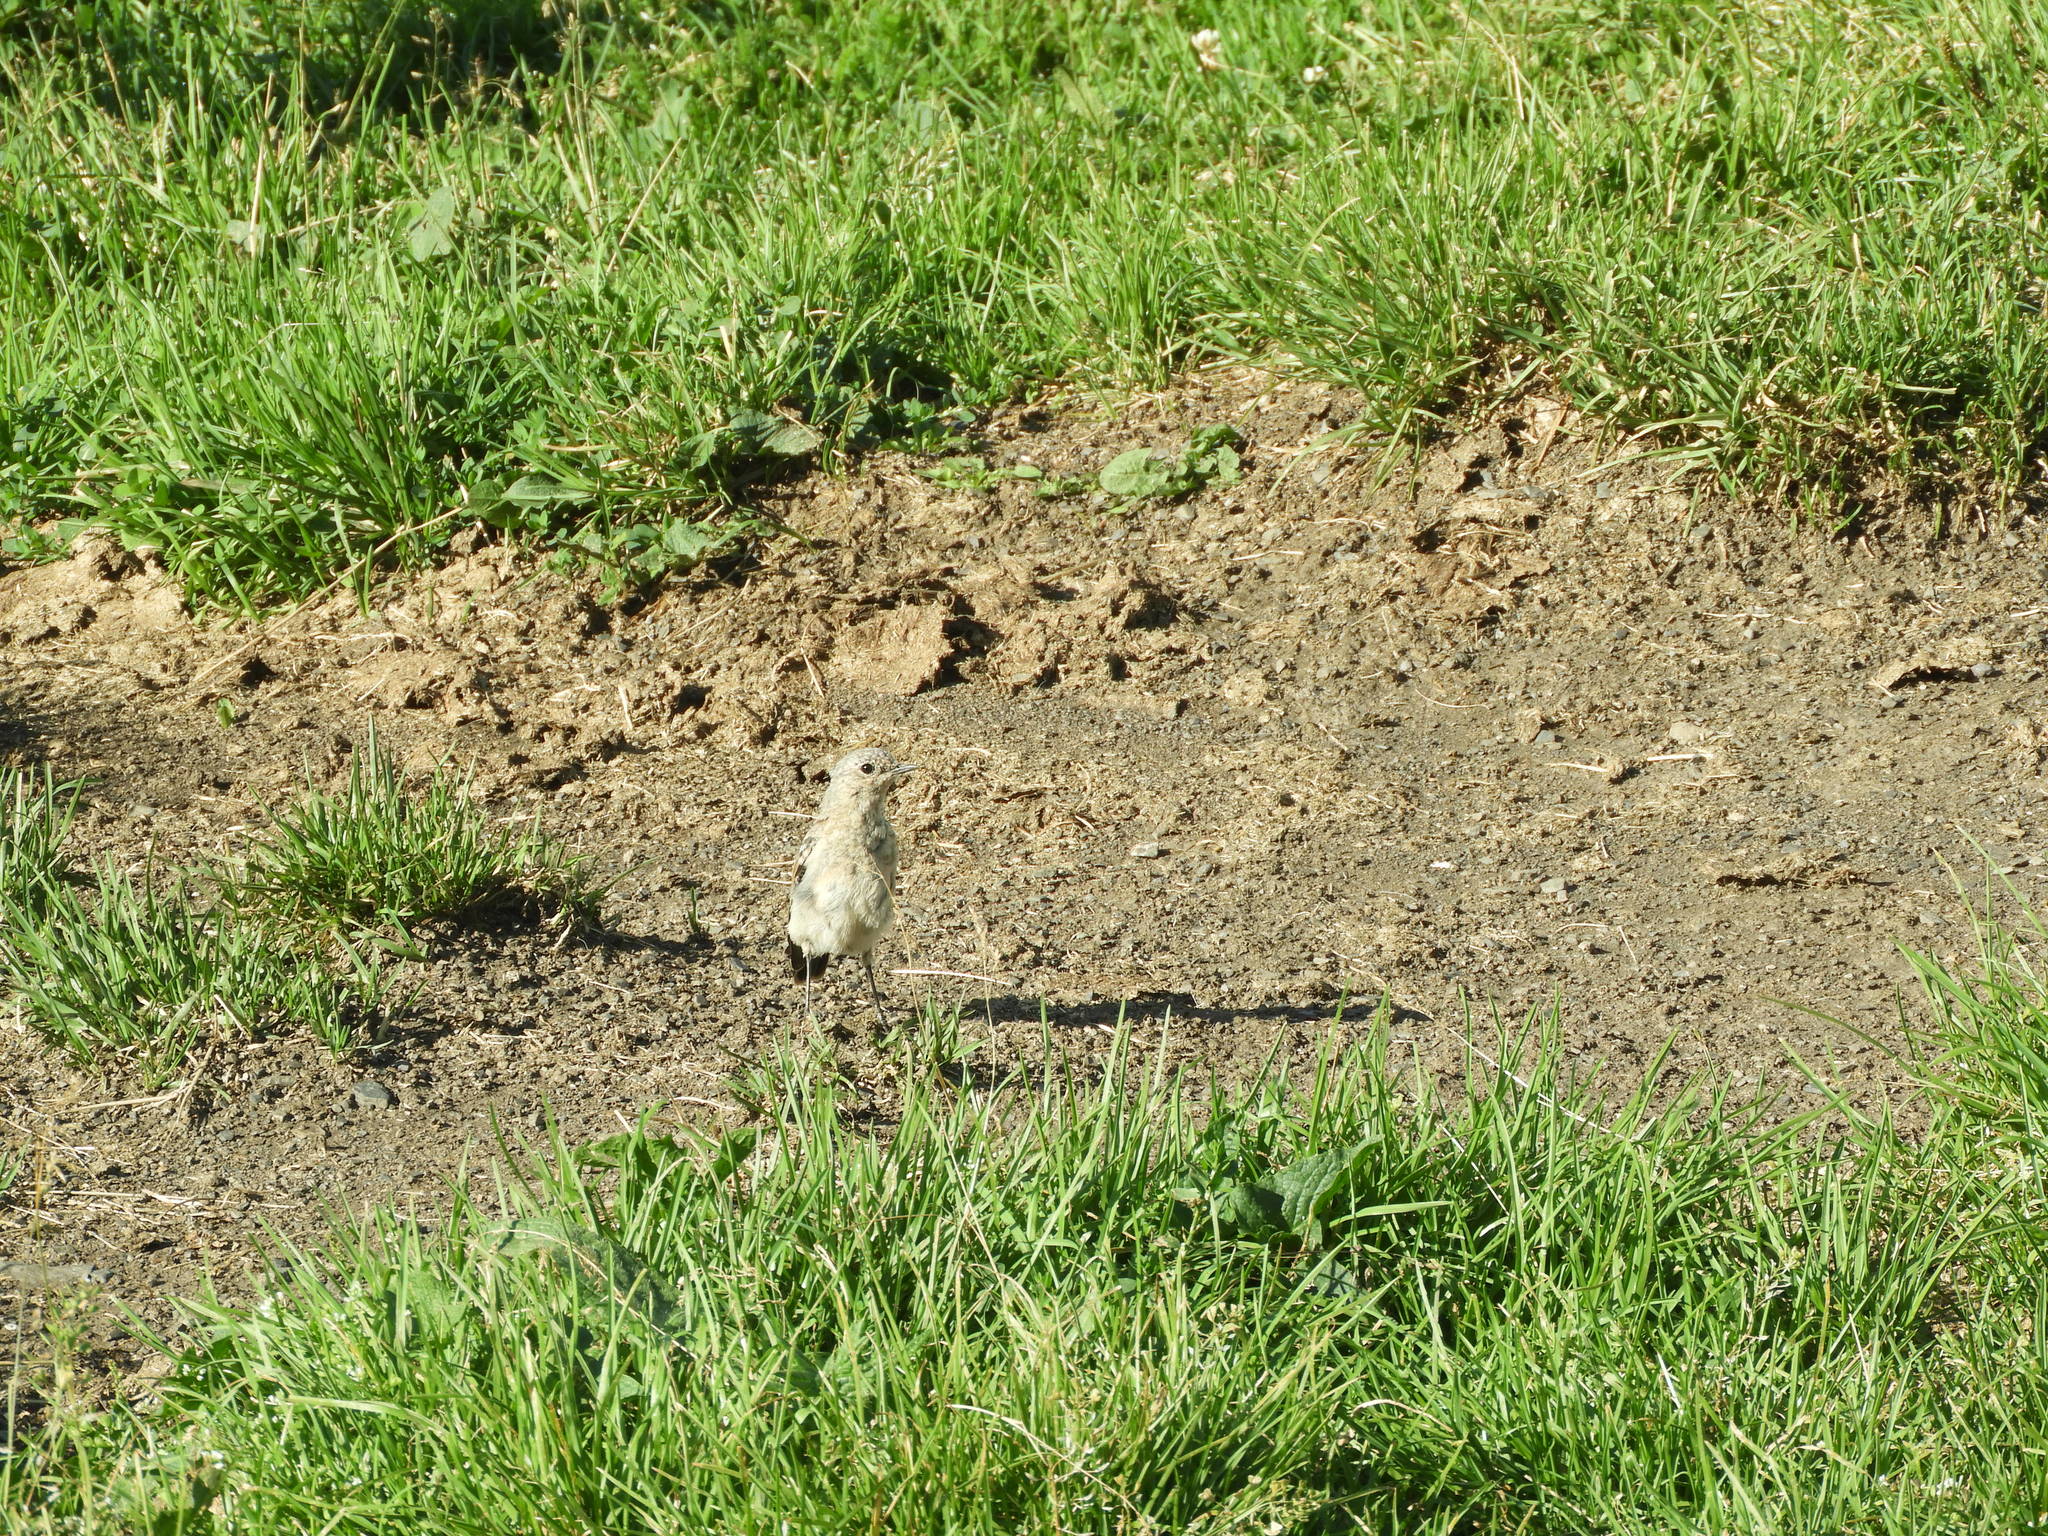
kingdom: Animalia
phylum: Chordata
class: Aves
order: Passeriformes
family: Muscicapidae
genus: Oenanthe
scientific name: Oenanthe oenanthe
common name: Northern wheatear
